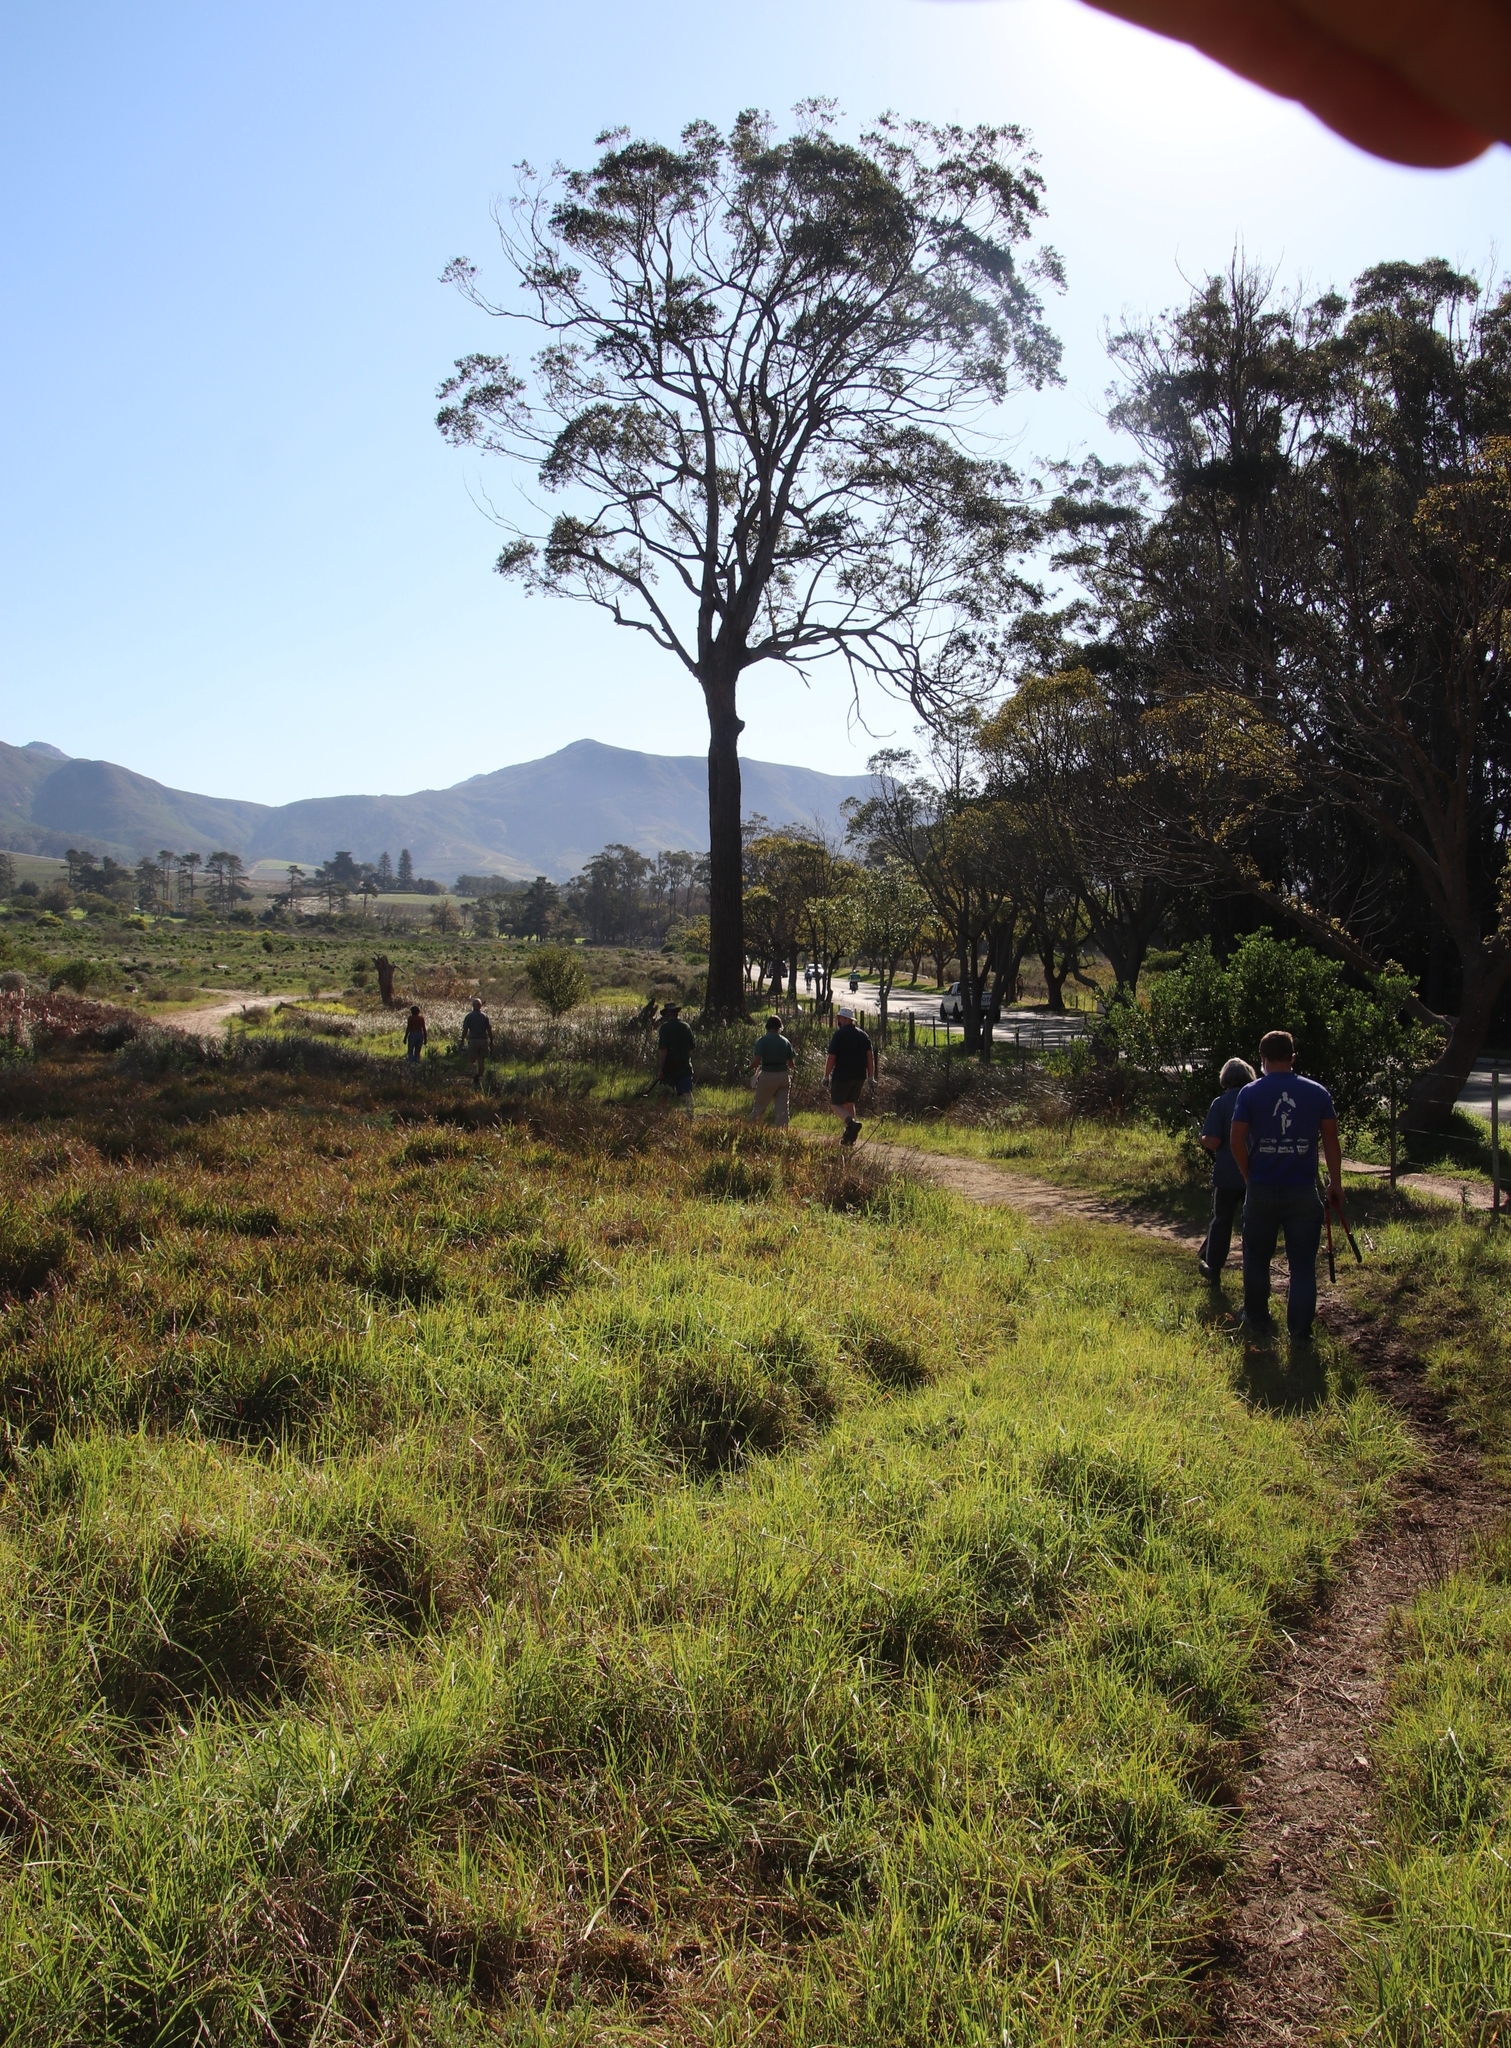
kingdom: Plantae
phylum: Tracheophyta
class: Liliopsida
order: Poales
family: Poaceae
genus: Cenchrus
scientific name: Cenchrus clandestinus
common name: Kikuyugrass
